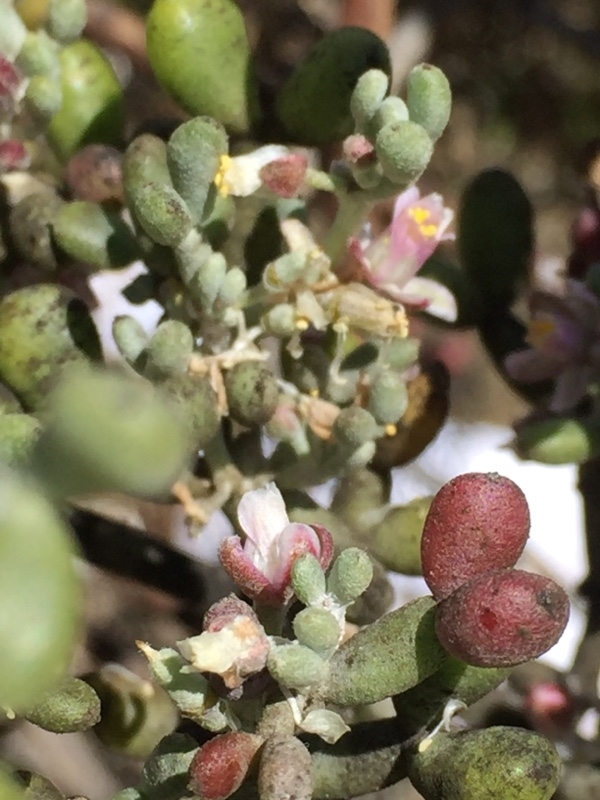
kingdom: Plantae
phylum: Tracheophyta
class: Magnoliopsida
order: Zygophyllales
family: Zygophyllaceae
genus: Tetraena
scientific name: Tetraena fontanesii
